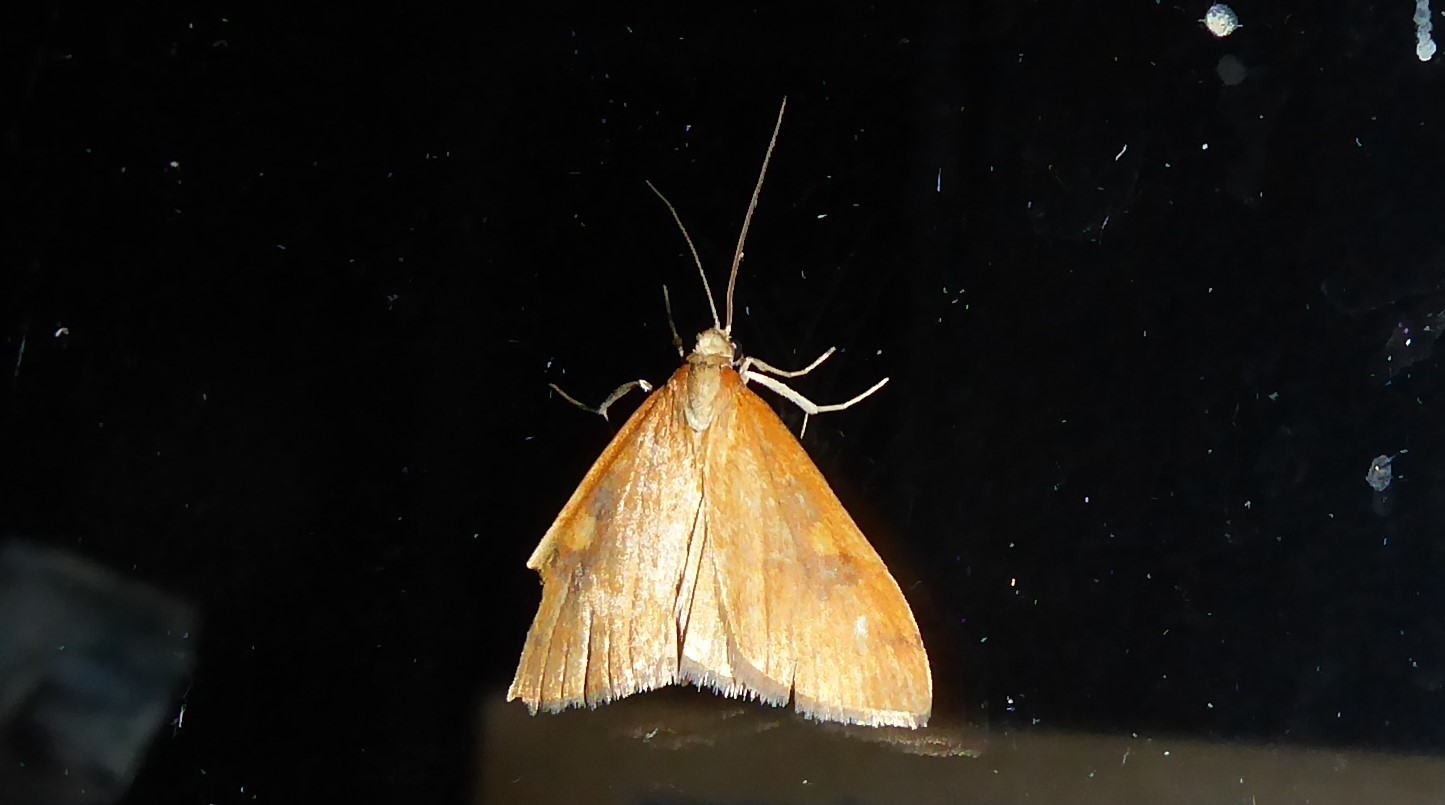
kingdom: Animalia
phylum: Arthropoda
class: Insecta
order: Lepidoptera
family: Crambidae
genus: Udea
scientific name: Udea Mnesictena flavidalis
